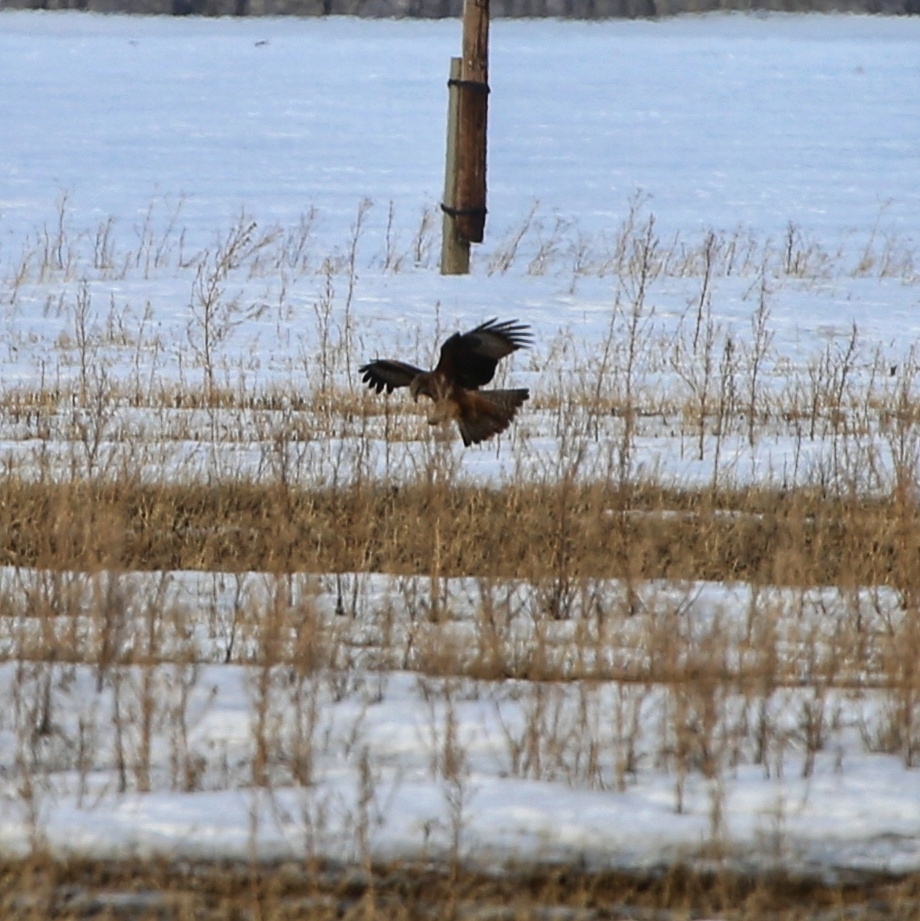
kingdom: Animalia
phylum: Chordata
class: Aves
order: Accipitriformes
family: Accipitridae
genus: Milvus
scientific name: Milvus migrans
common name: Black kite
